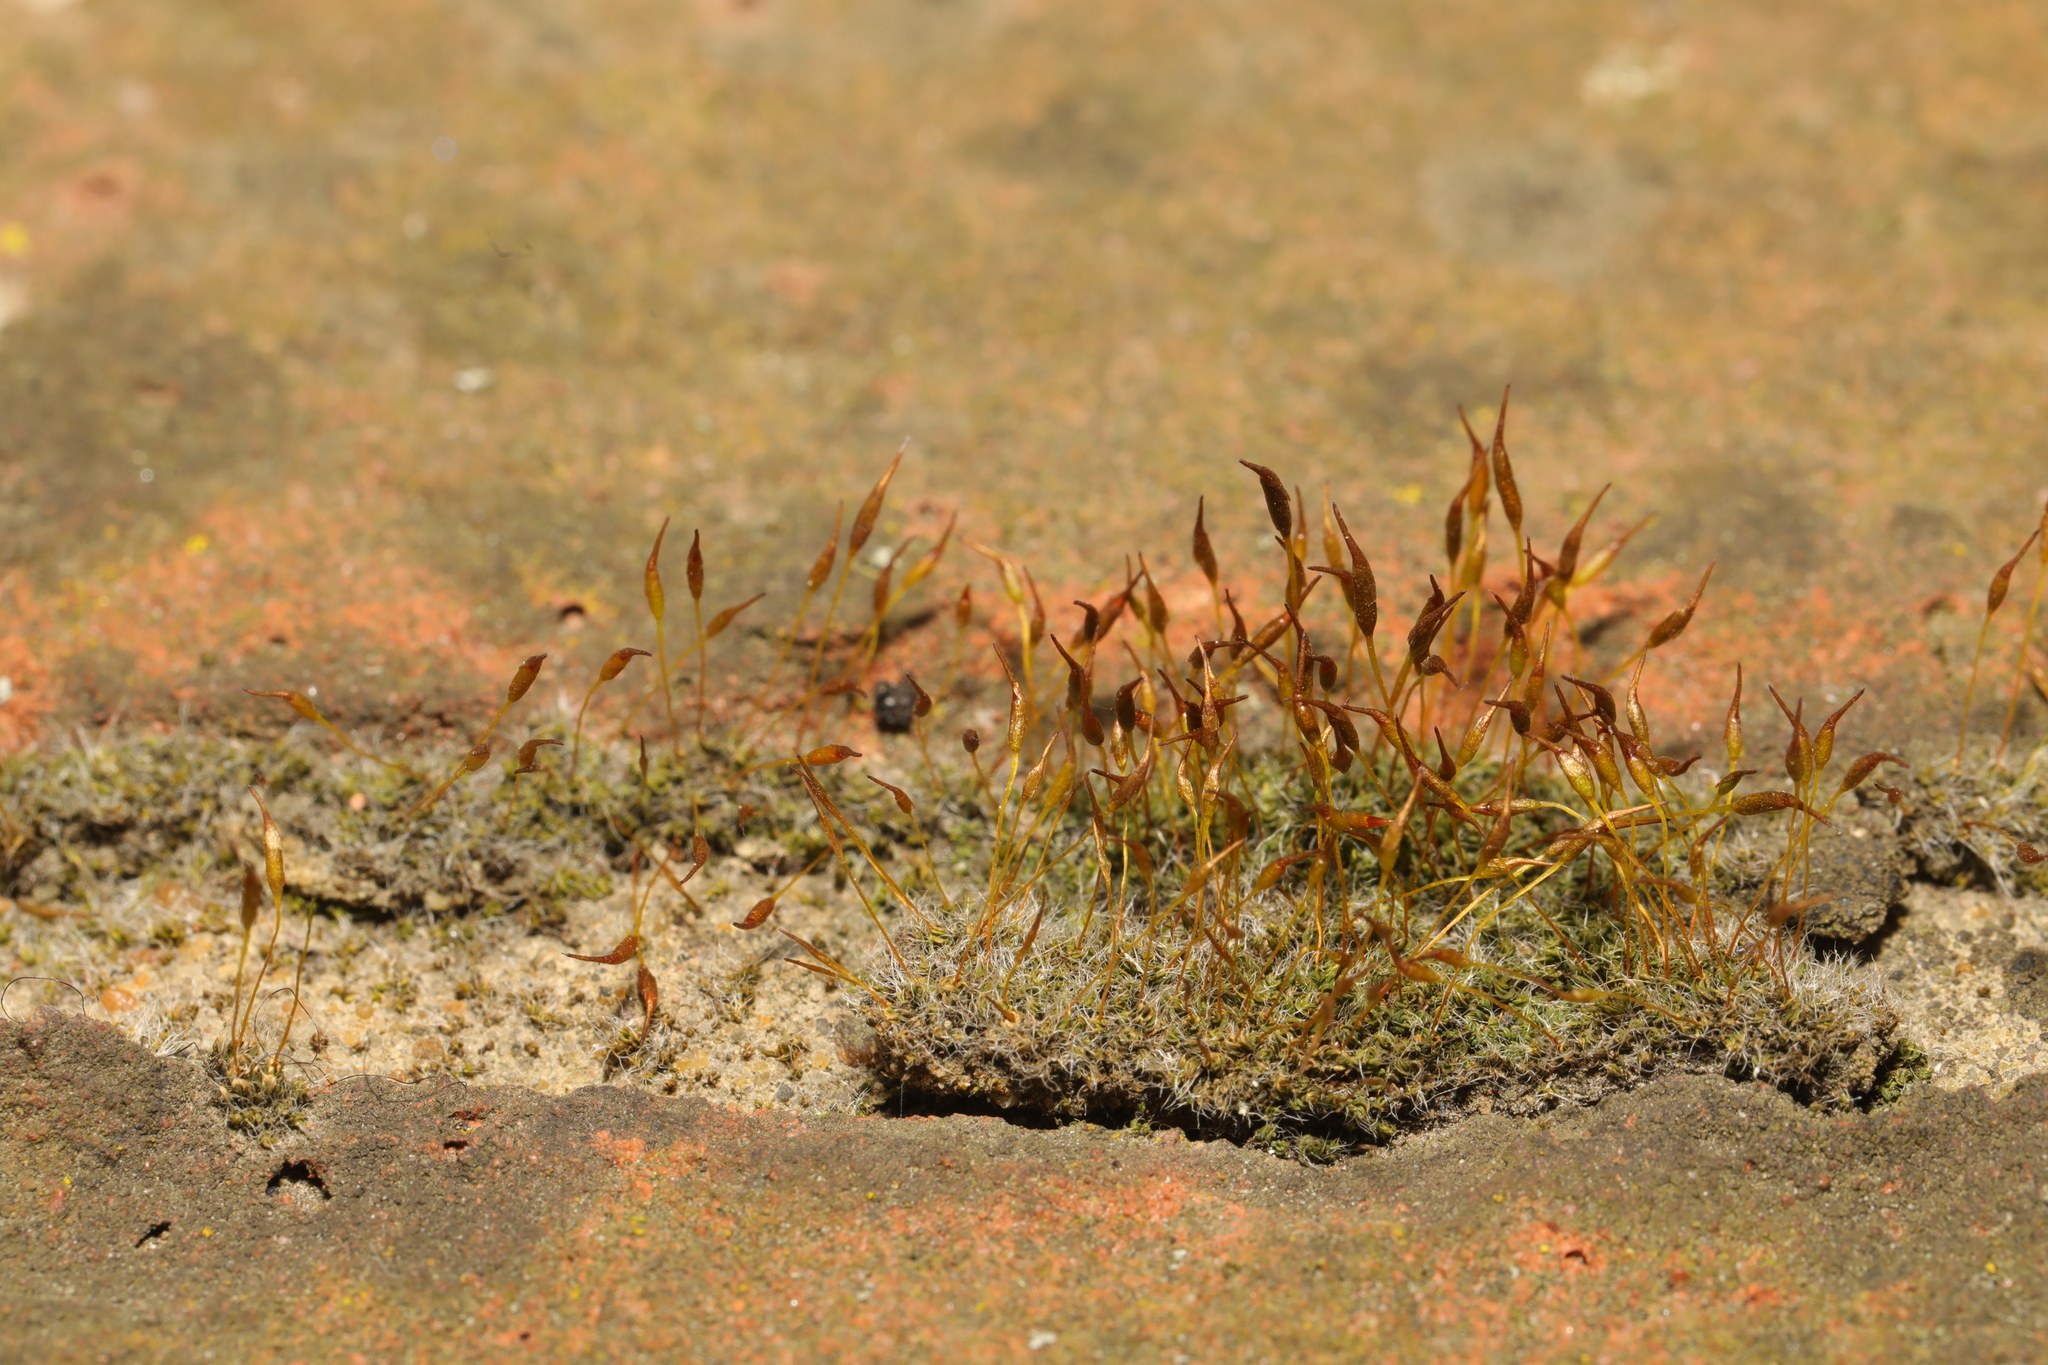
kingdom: Plantae
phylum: Bryophyta
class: Bryopsida
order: Pottiales
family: Pottiaceae
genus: Tortula
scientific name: Tortula muralis
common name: Wall screw-moss
